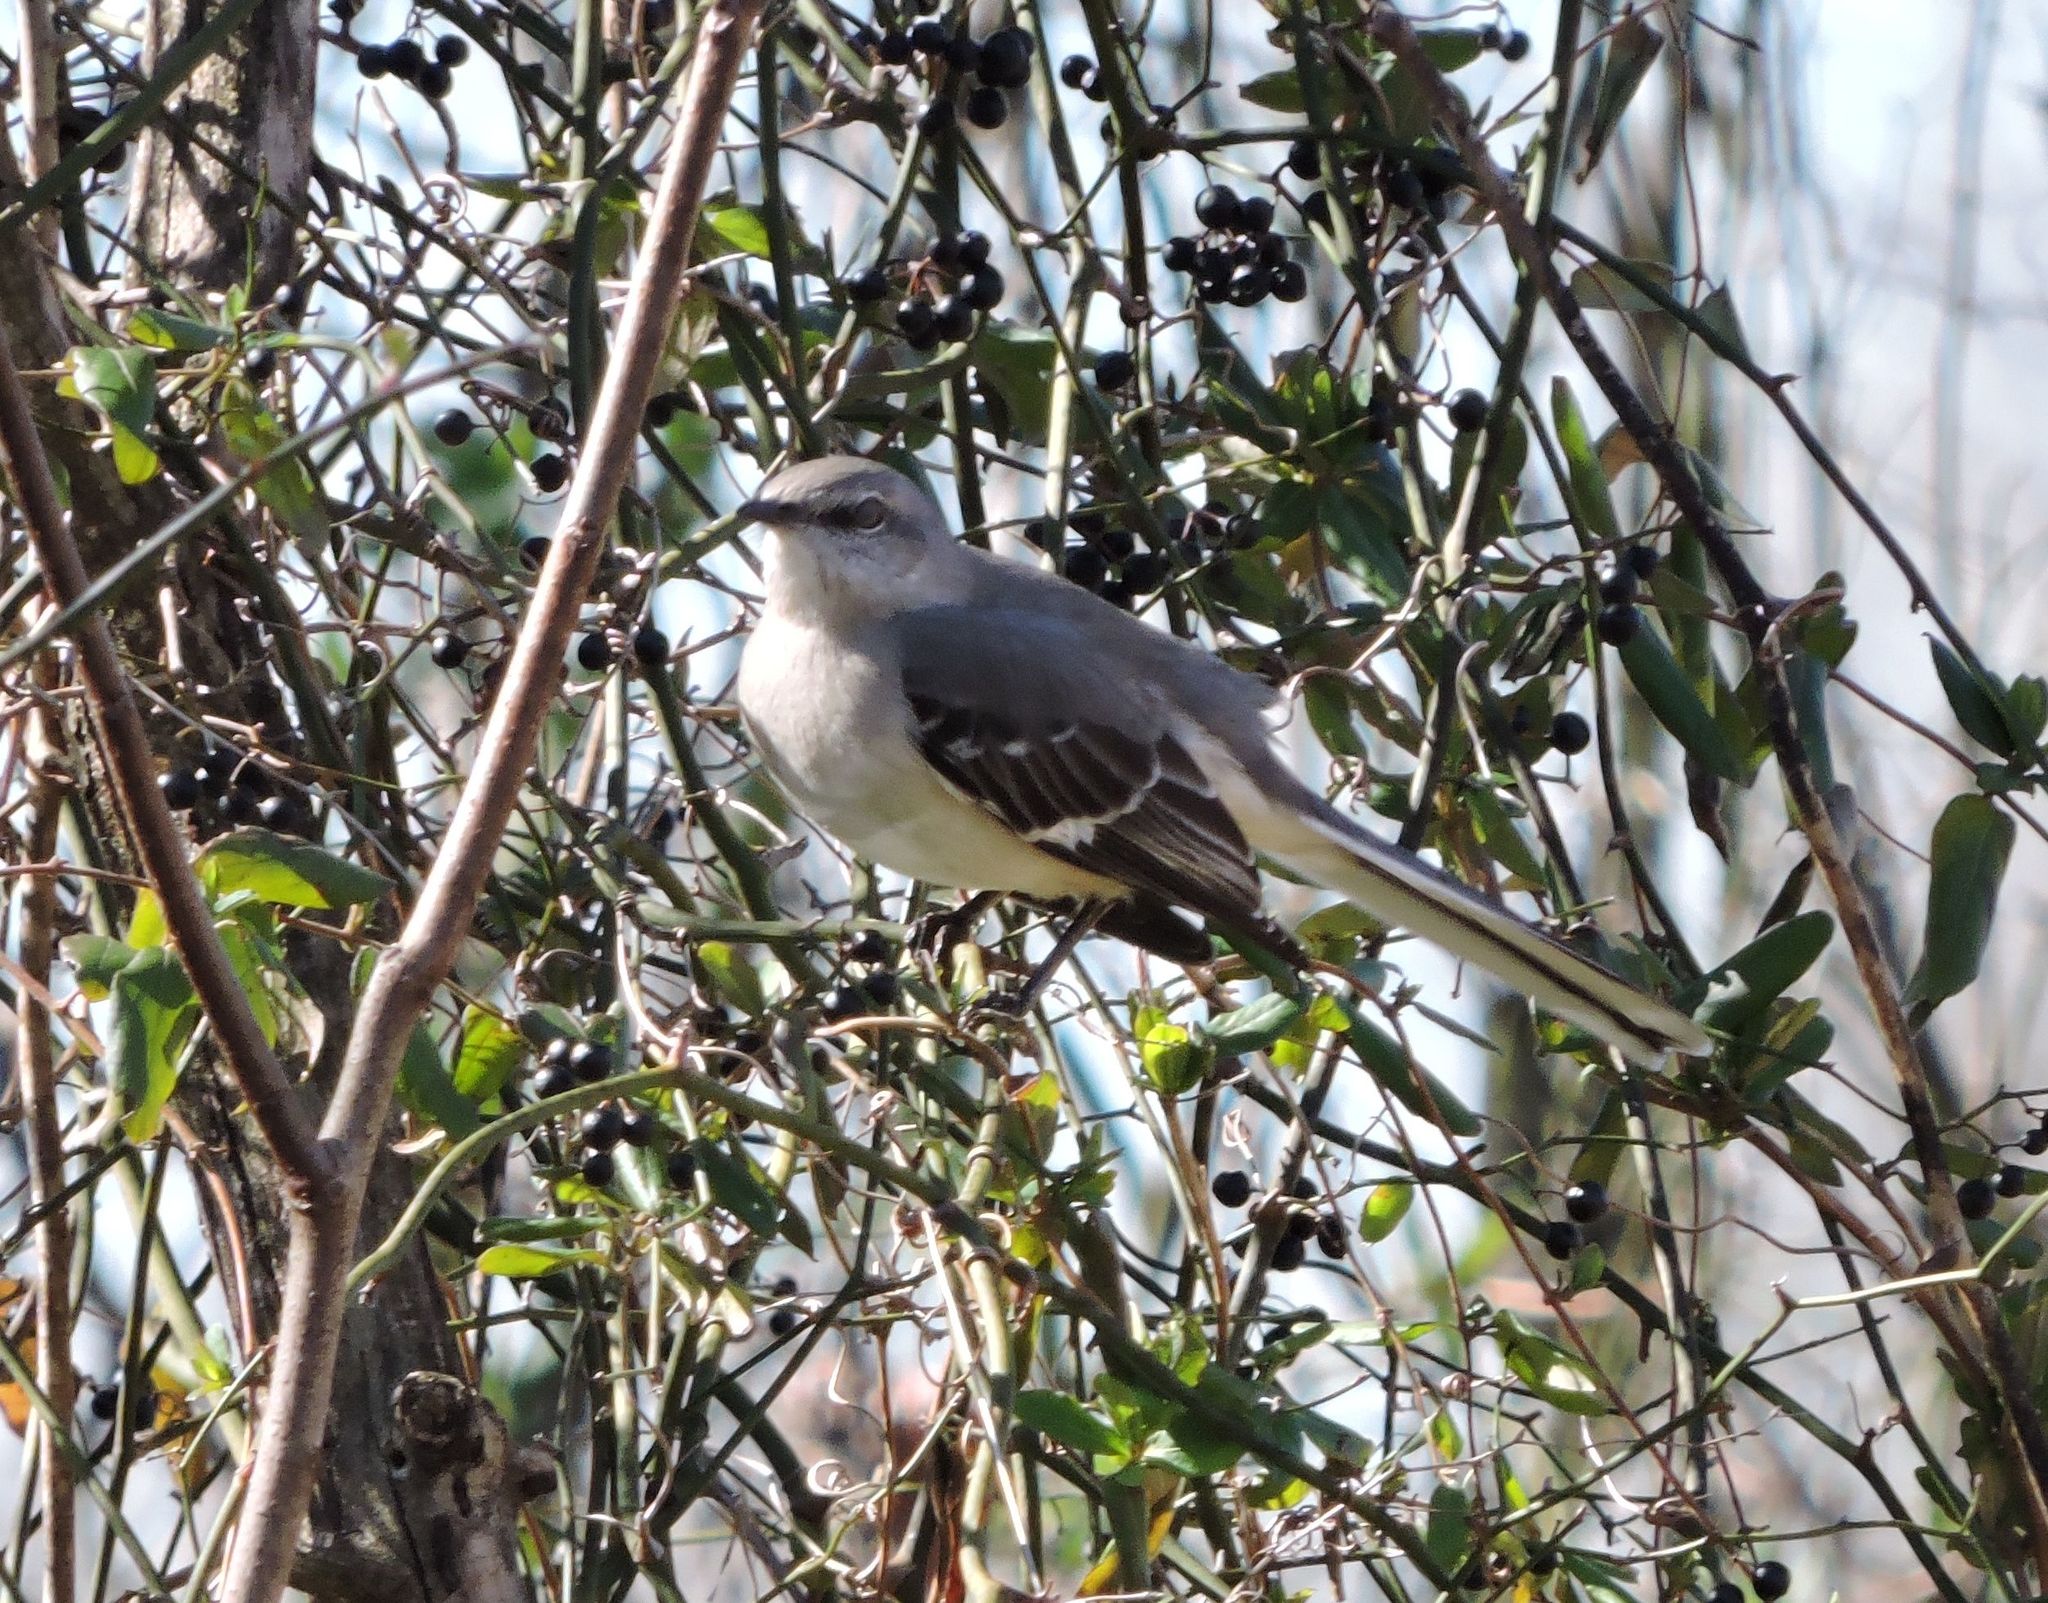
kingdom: Animalia
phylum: Chordata
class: Aves
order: Passeriformes
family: Mimidae
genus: Mimus
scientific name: Mimus polyglottos
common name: Northern mockingbird
